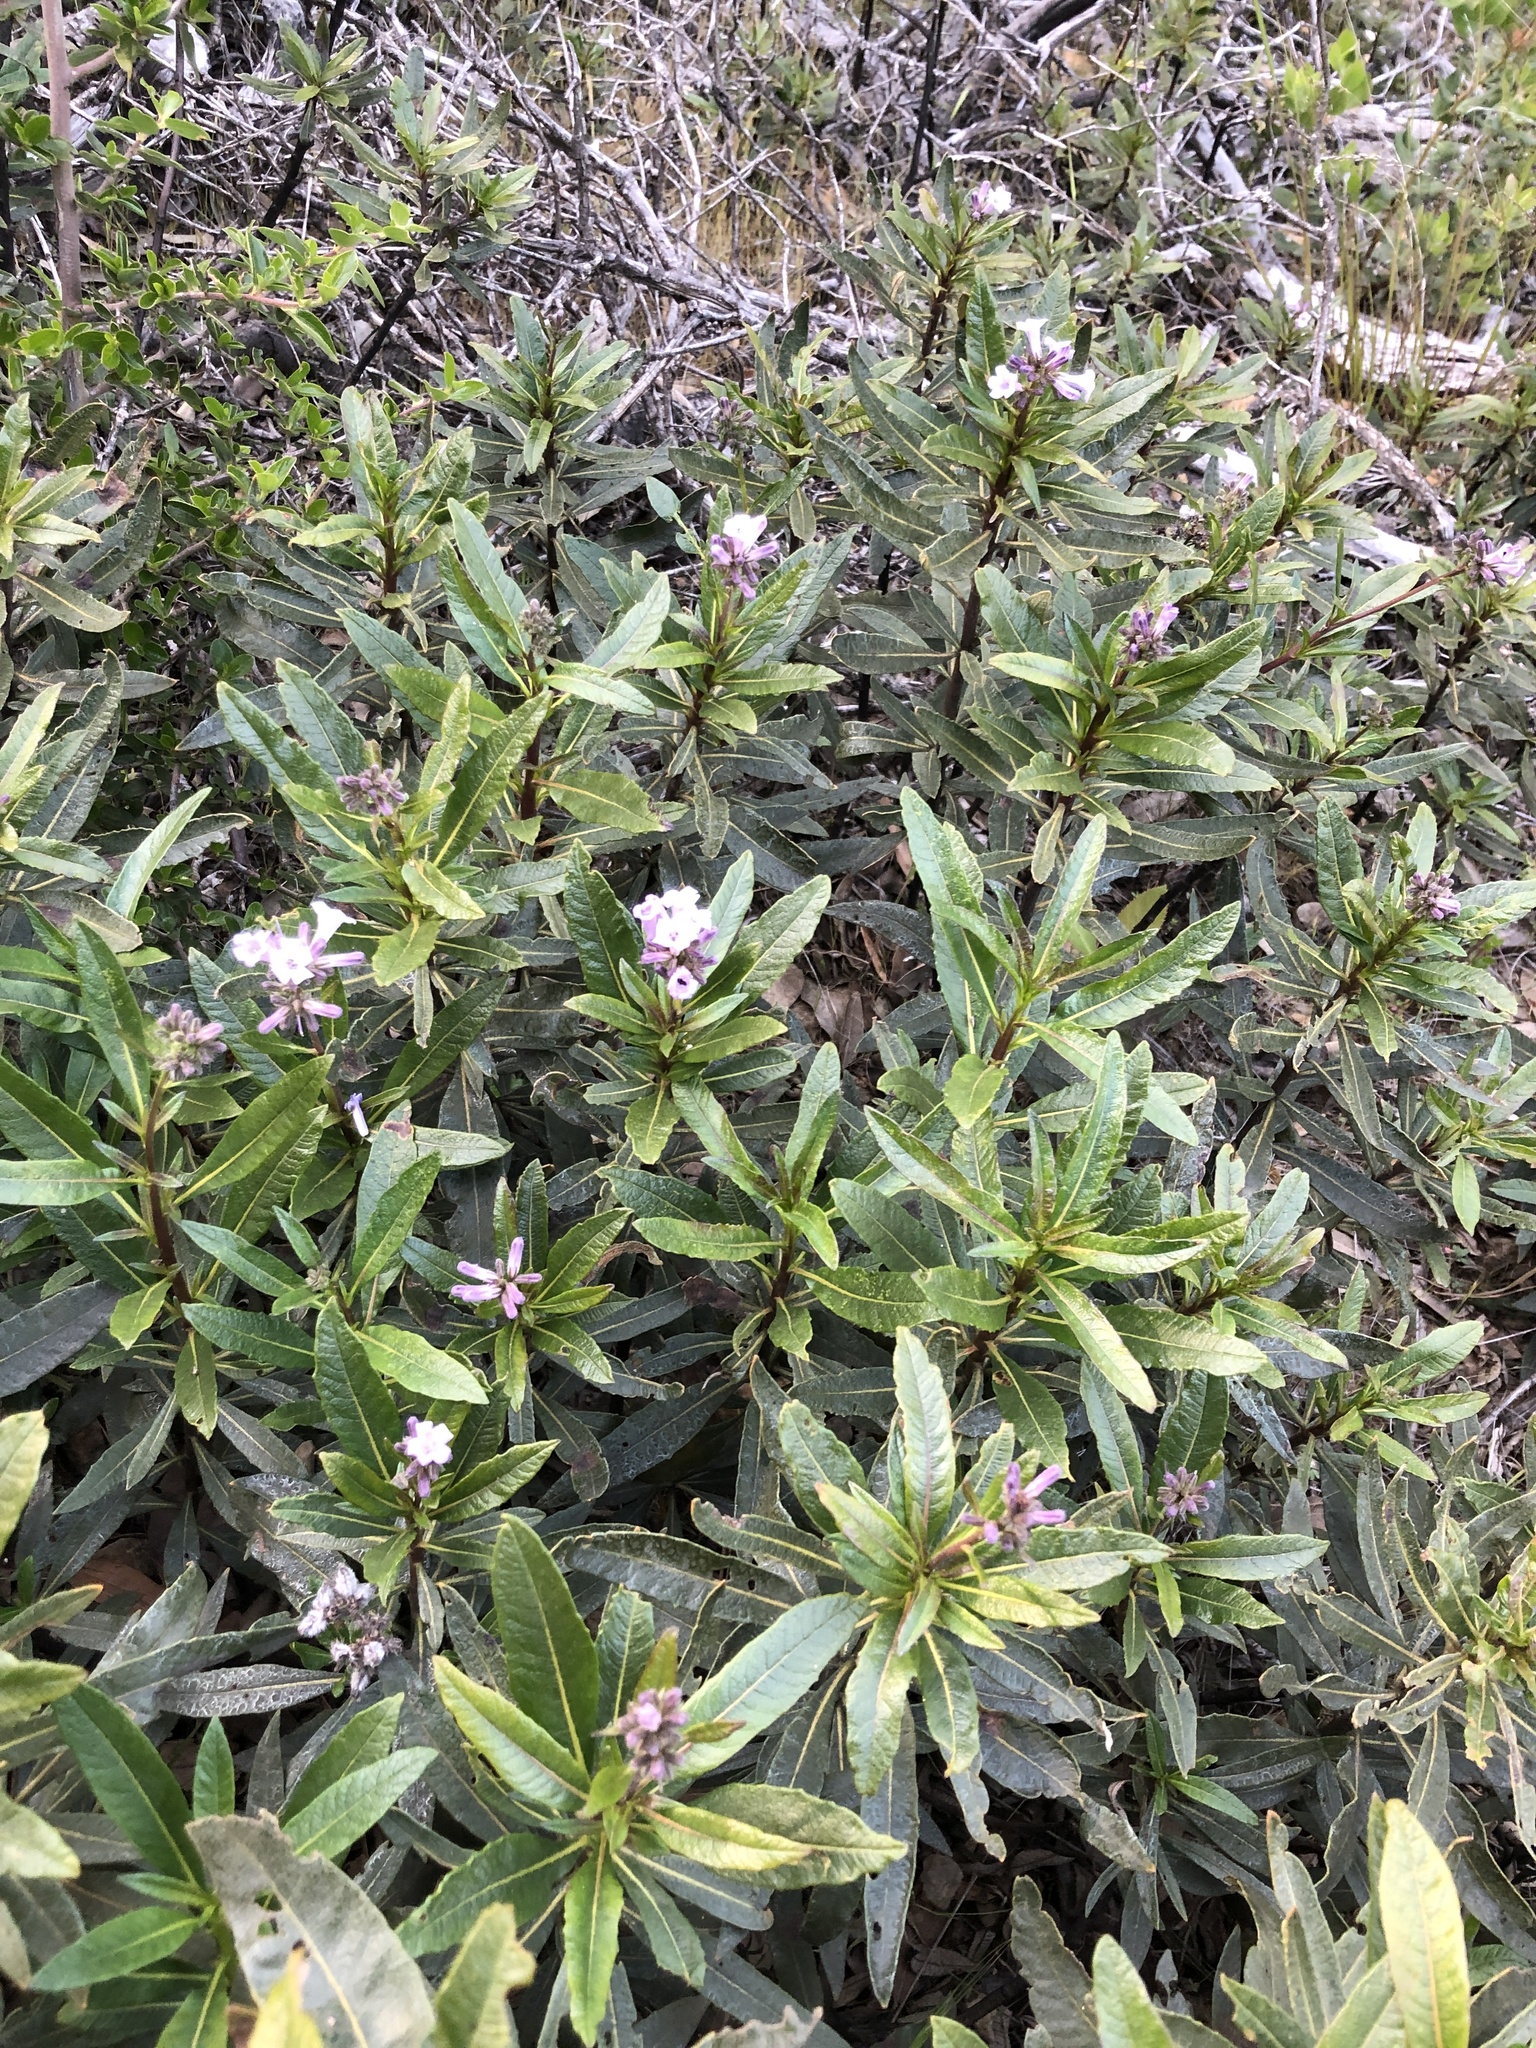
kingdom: Plantae
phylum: Tracheophyta
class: Magnoliopsida
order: Boraginales
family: Namaceae
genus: Eriodictyon
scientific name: Eriodictyon californicum
